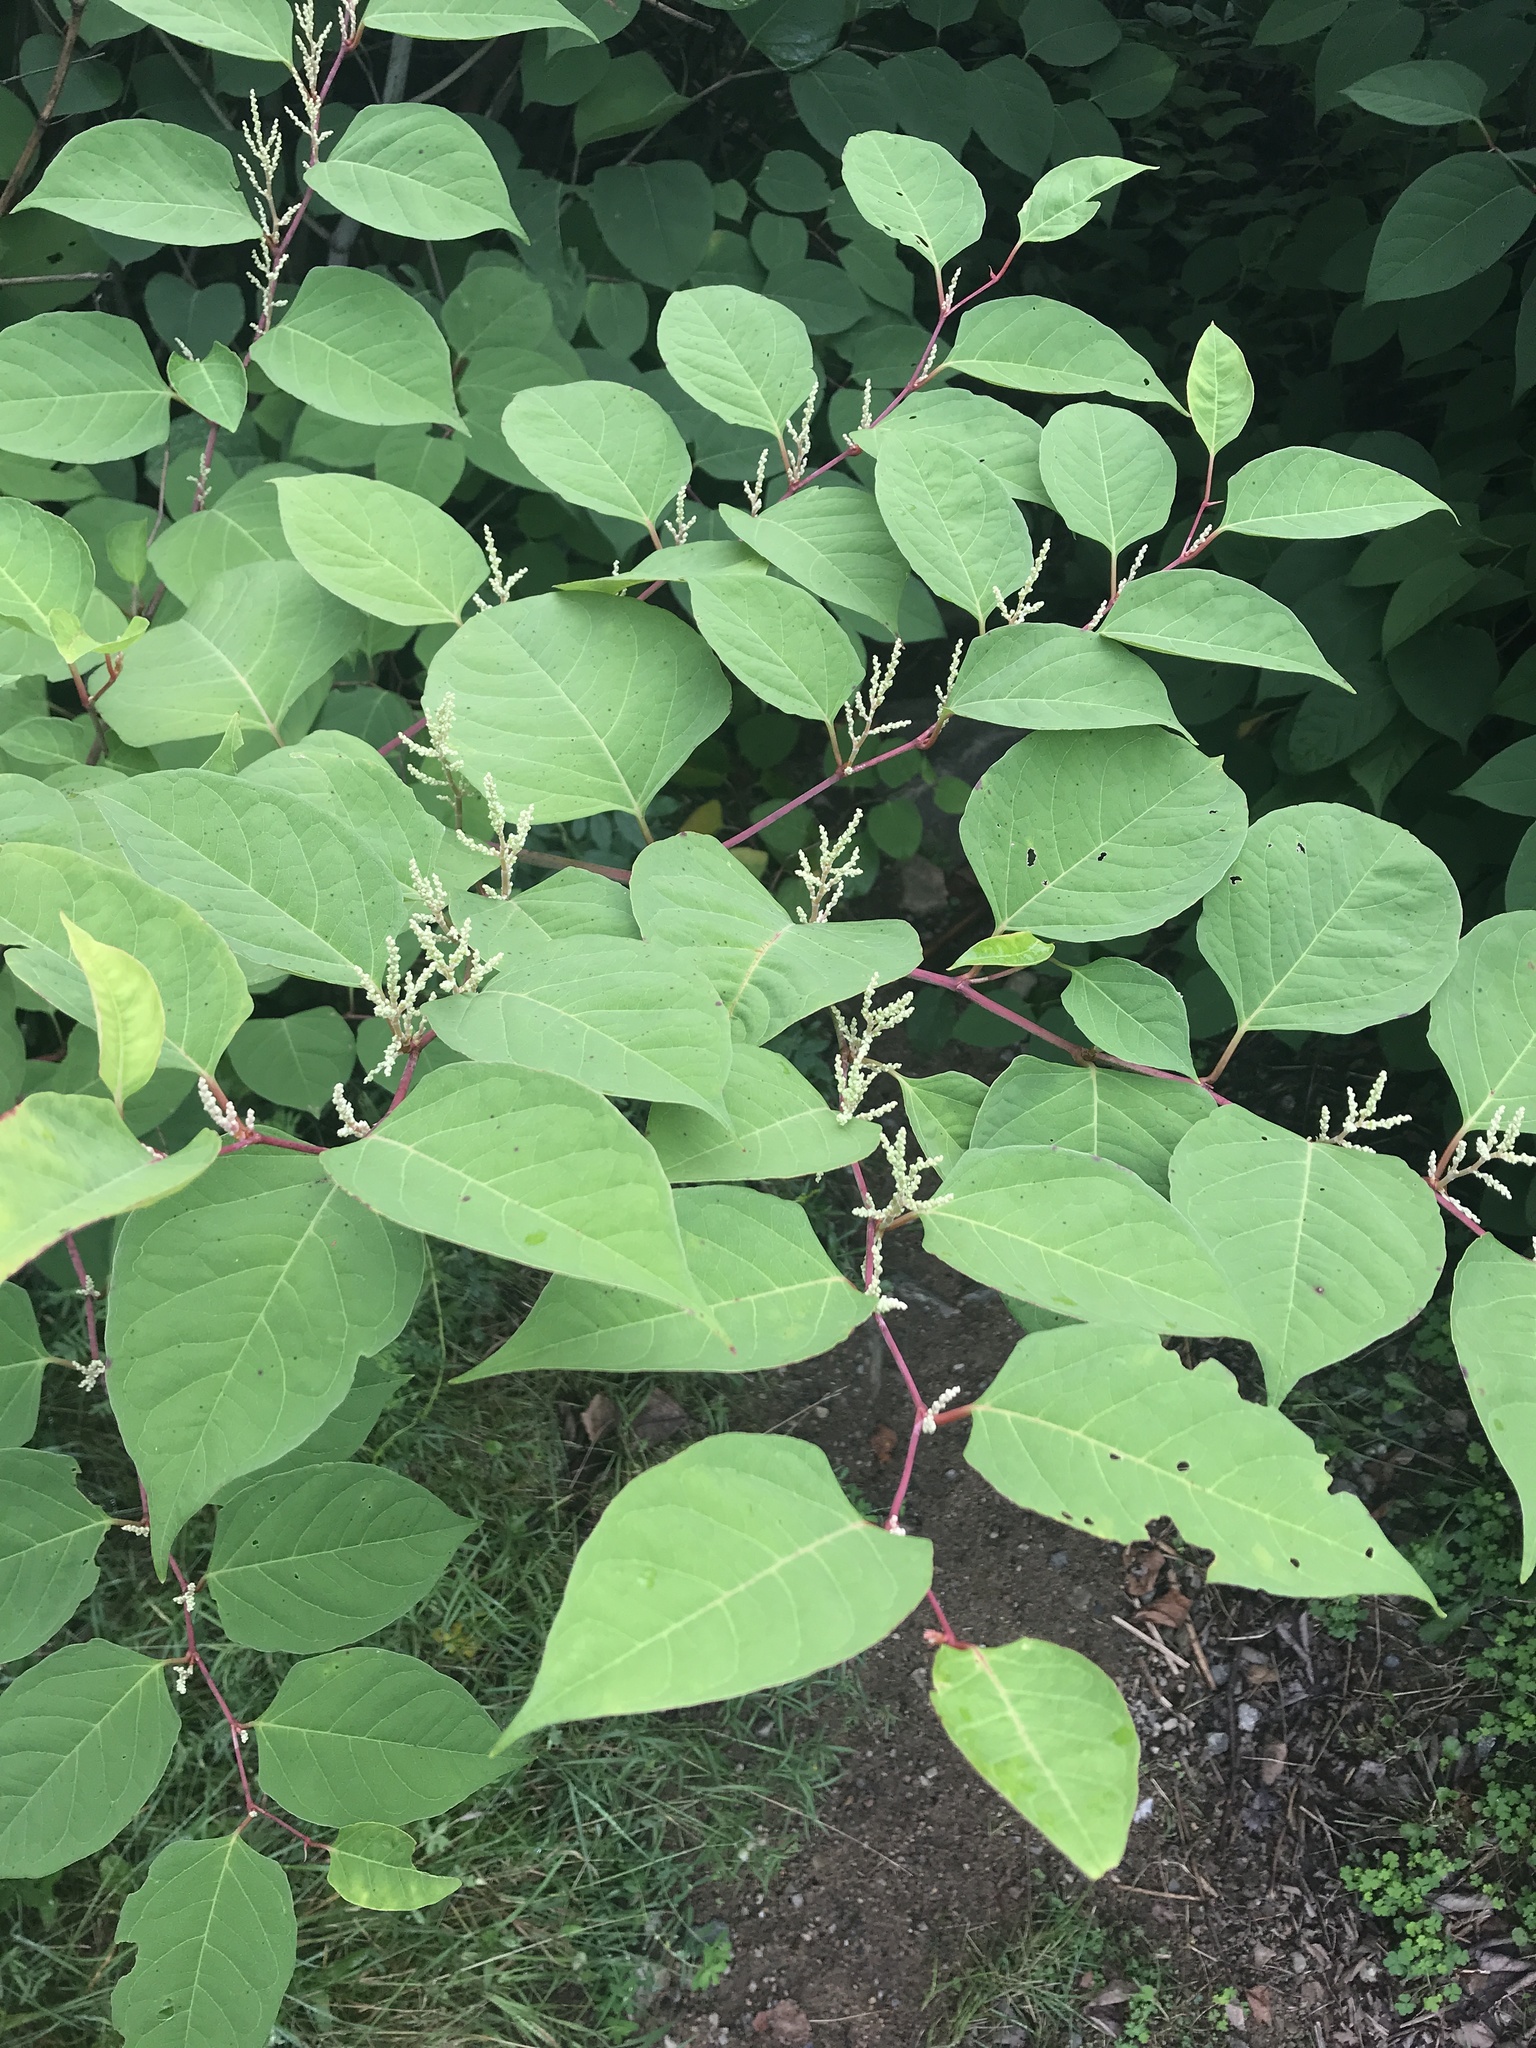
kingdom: Plantae
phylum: Tracheophyta
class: Magnoliopsida
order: Caryophyllales
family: Polygonaceae
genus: Reynoutria
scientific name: Reynoutria japonica
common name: Japanese knotweed
